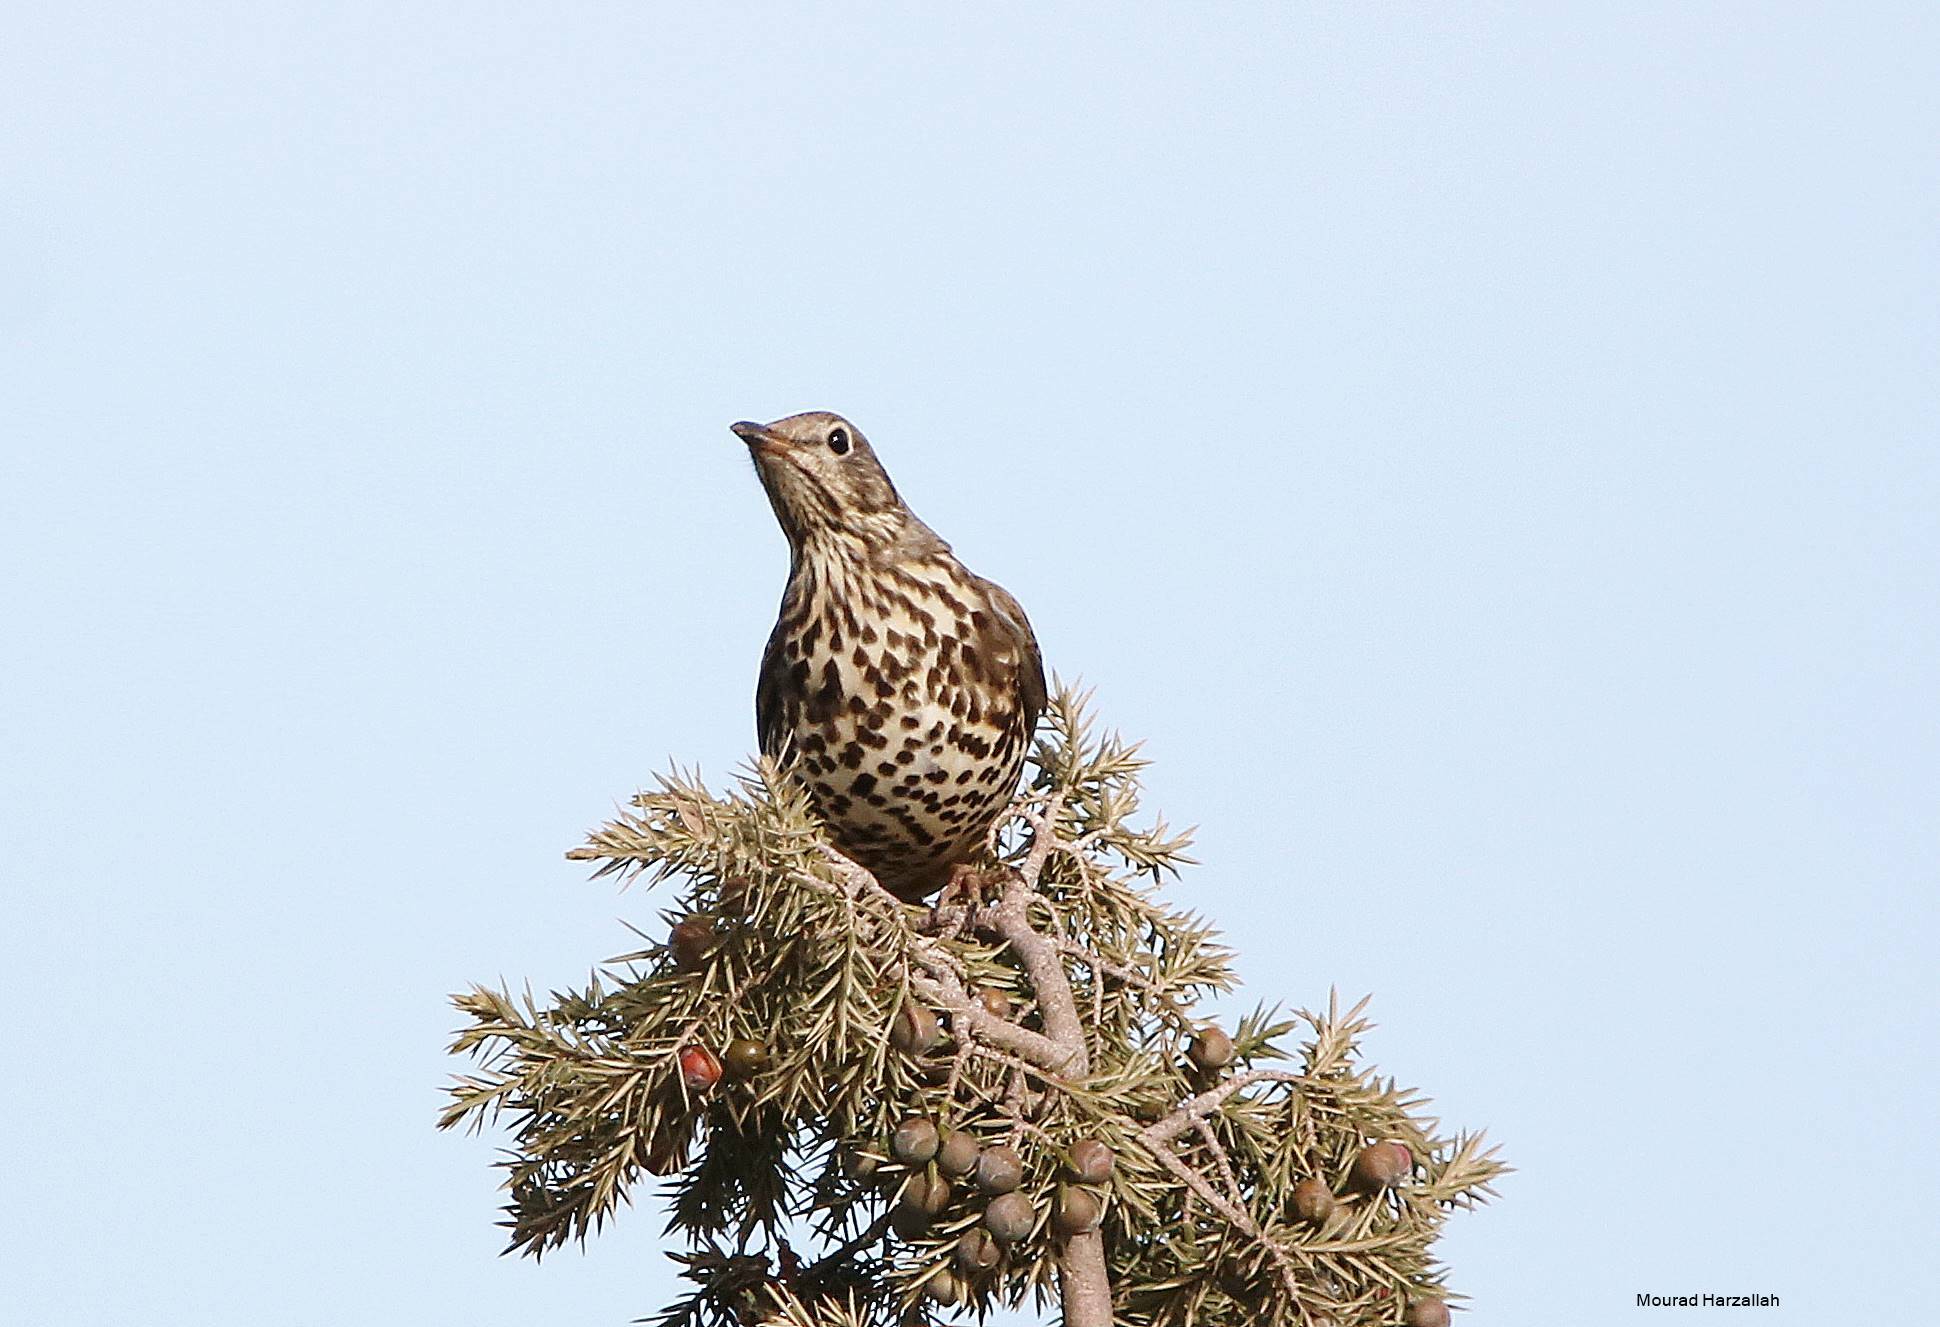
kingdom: Animalia
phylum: Chordata
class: Aves
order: Passeriformes
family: Turdidae
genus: Turdus
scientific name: Turdus viscivorus
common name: Mistle thrush
